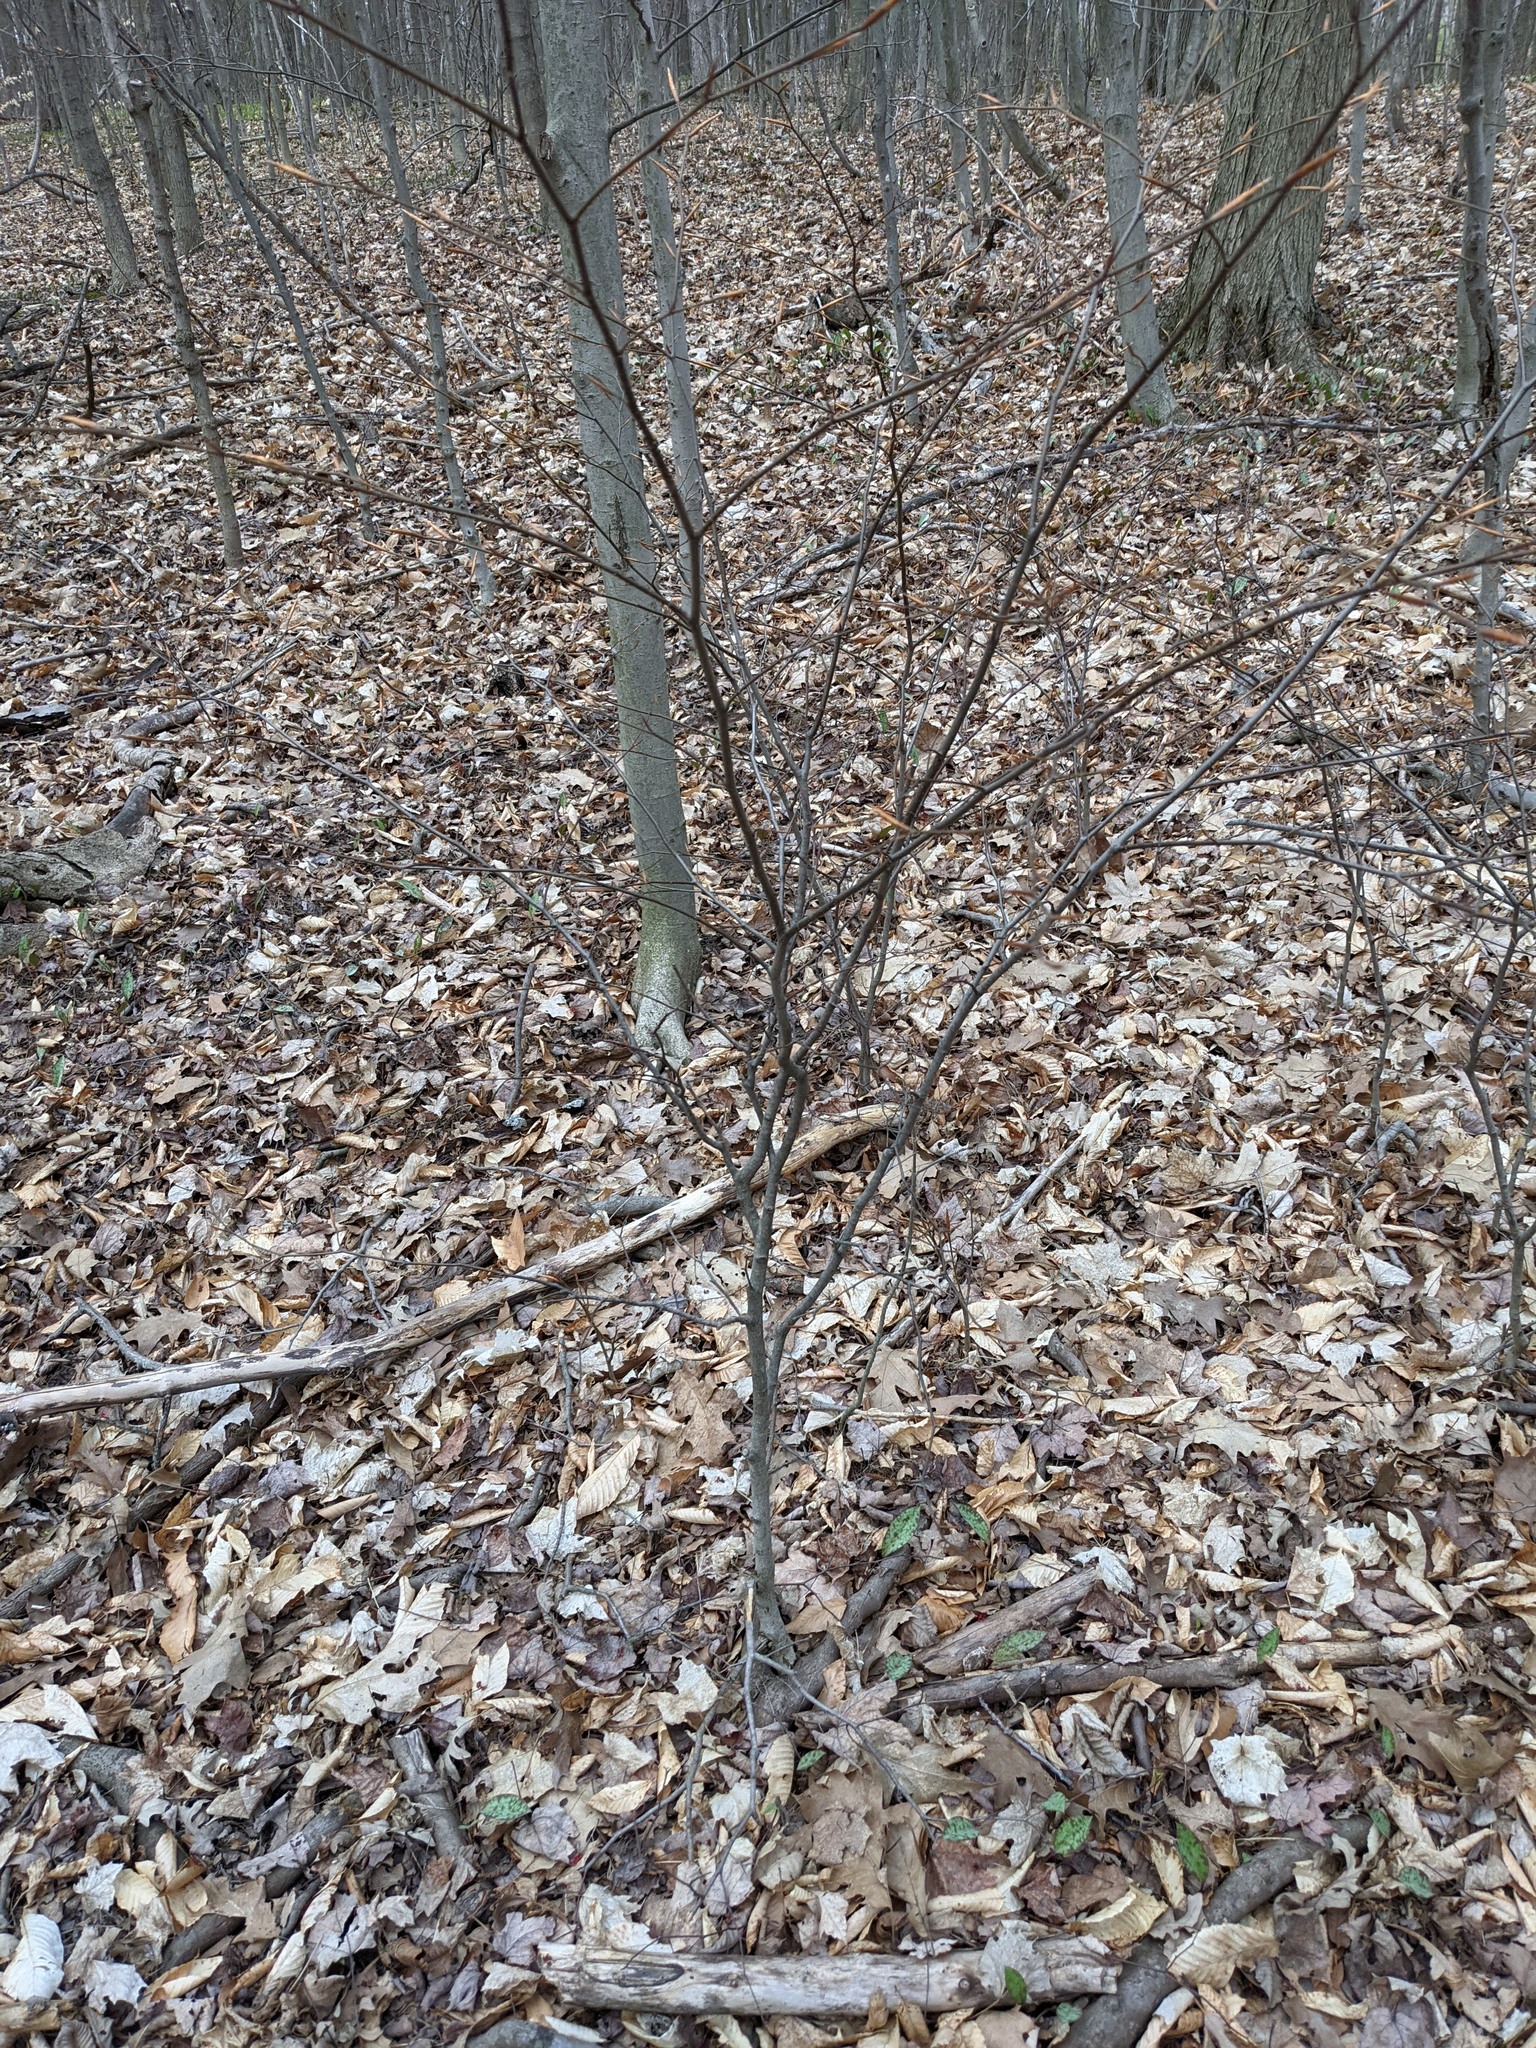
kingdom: Plantae
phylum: Tracheophyta
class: Magnoliopsida
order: Fagales
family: Fagaceae
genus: Fagus
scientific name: Fagus grandifolia
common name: American beech
